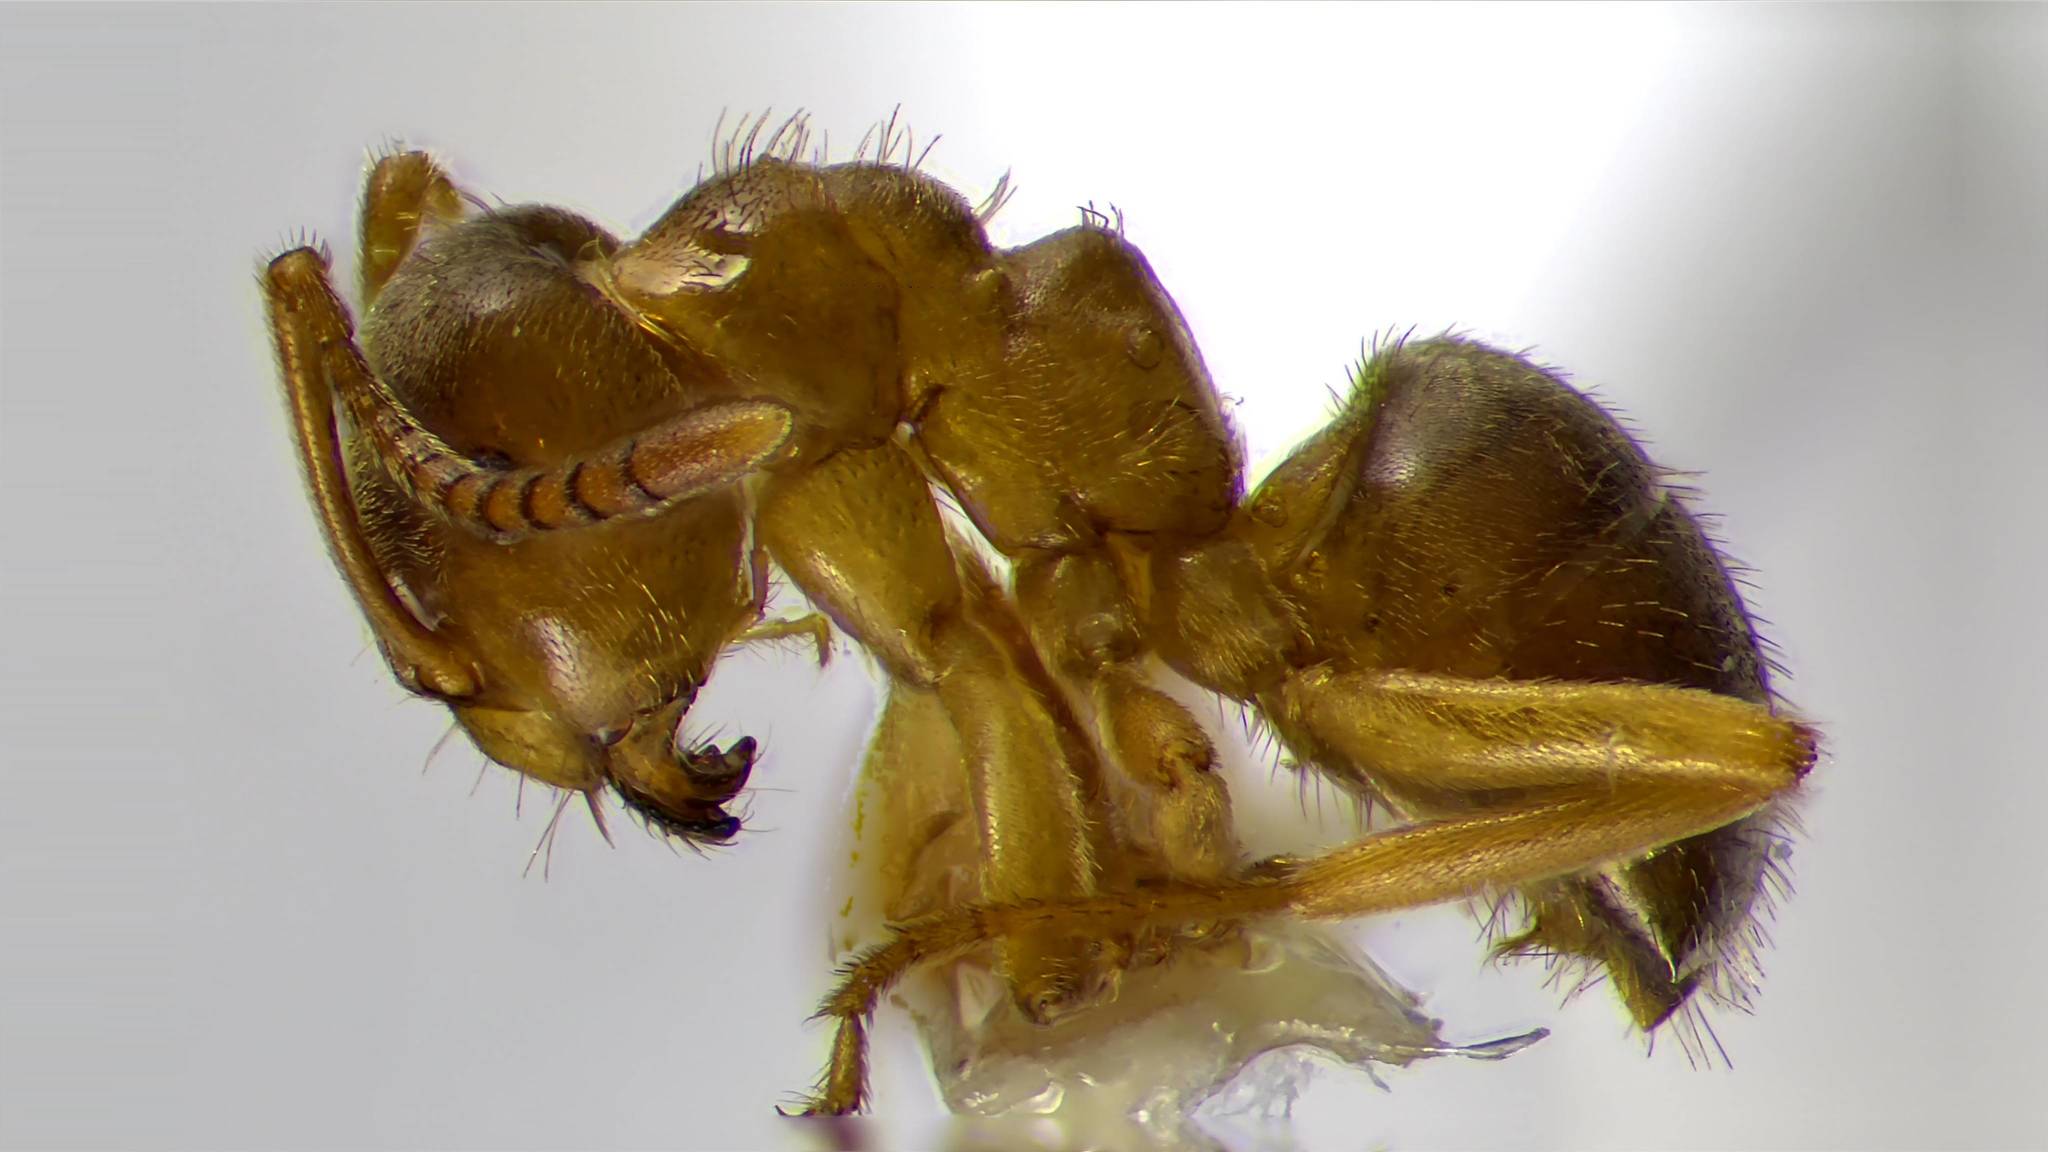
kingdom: Animalia
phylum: Arthropoda
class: Insecta
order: Hymenoptera
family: Formicidae
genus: Lasius
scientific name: Lasius aphidicola
